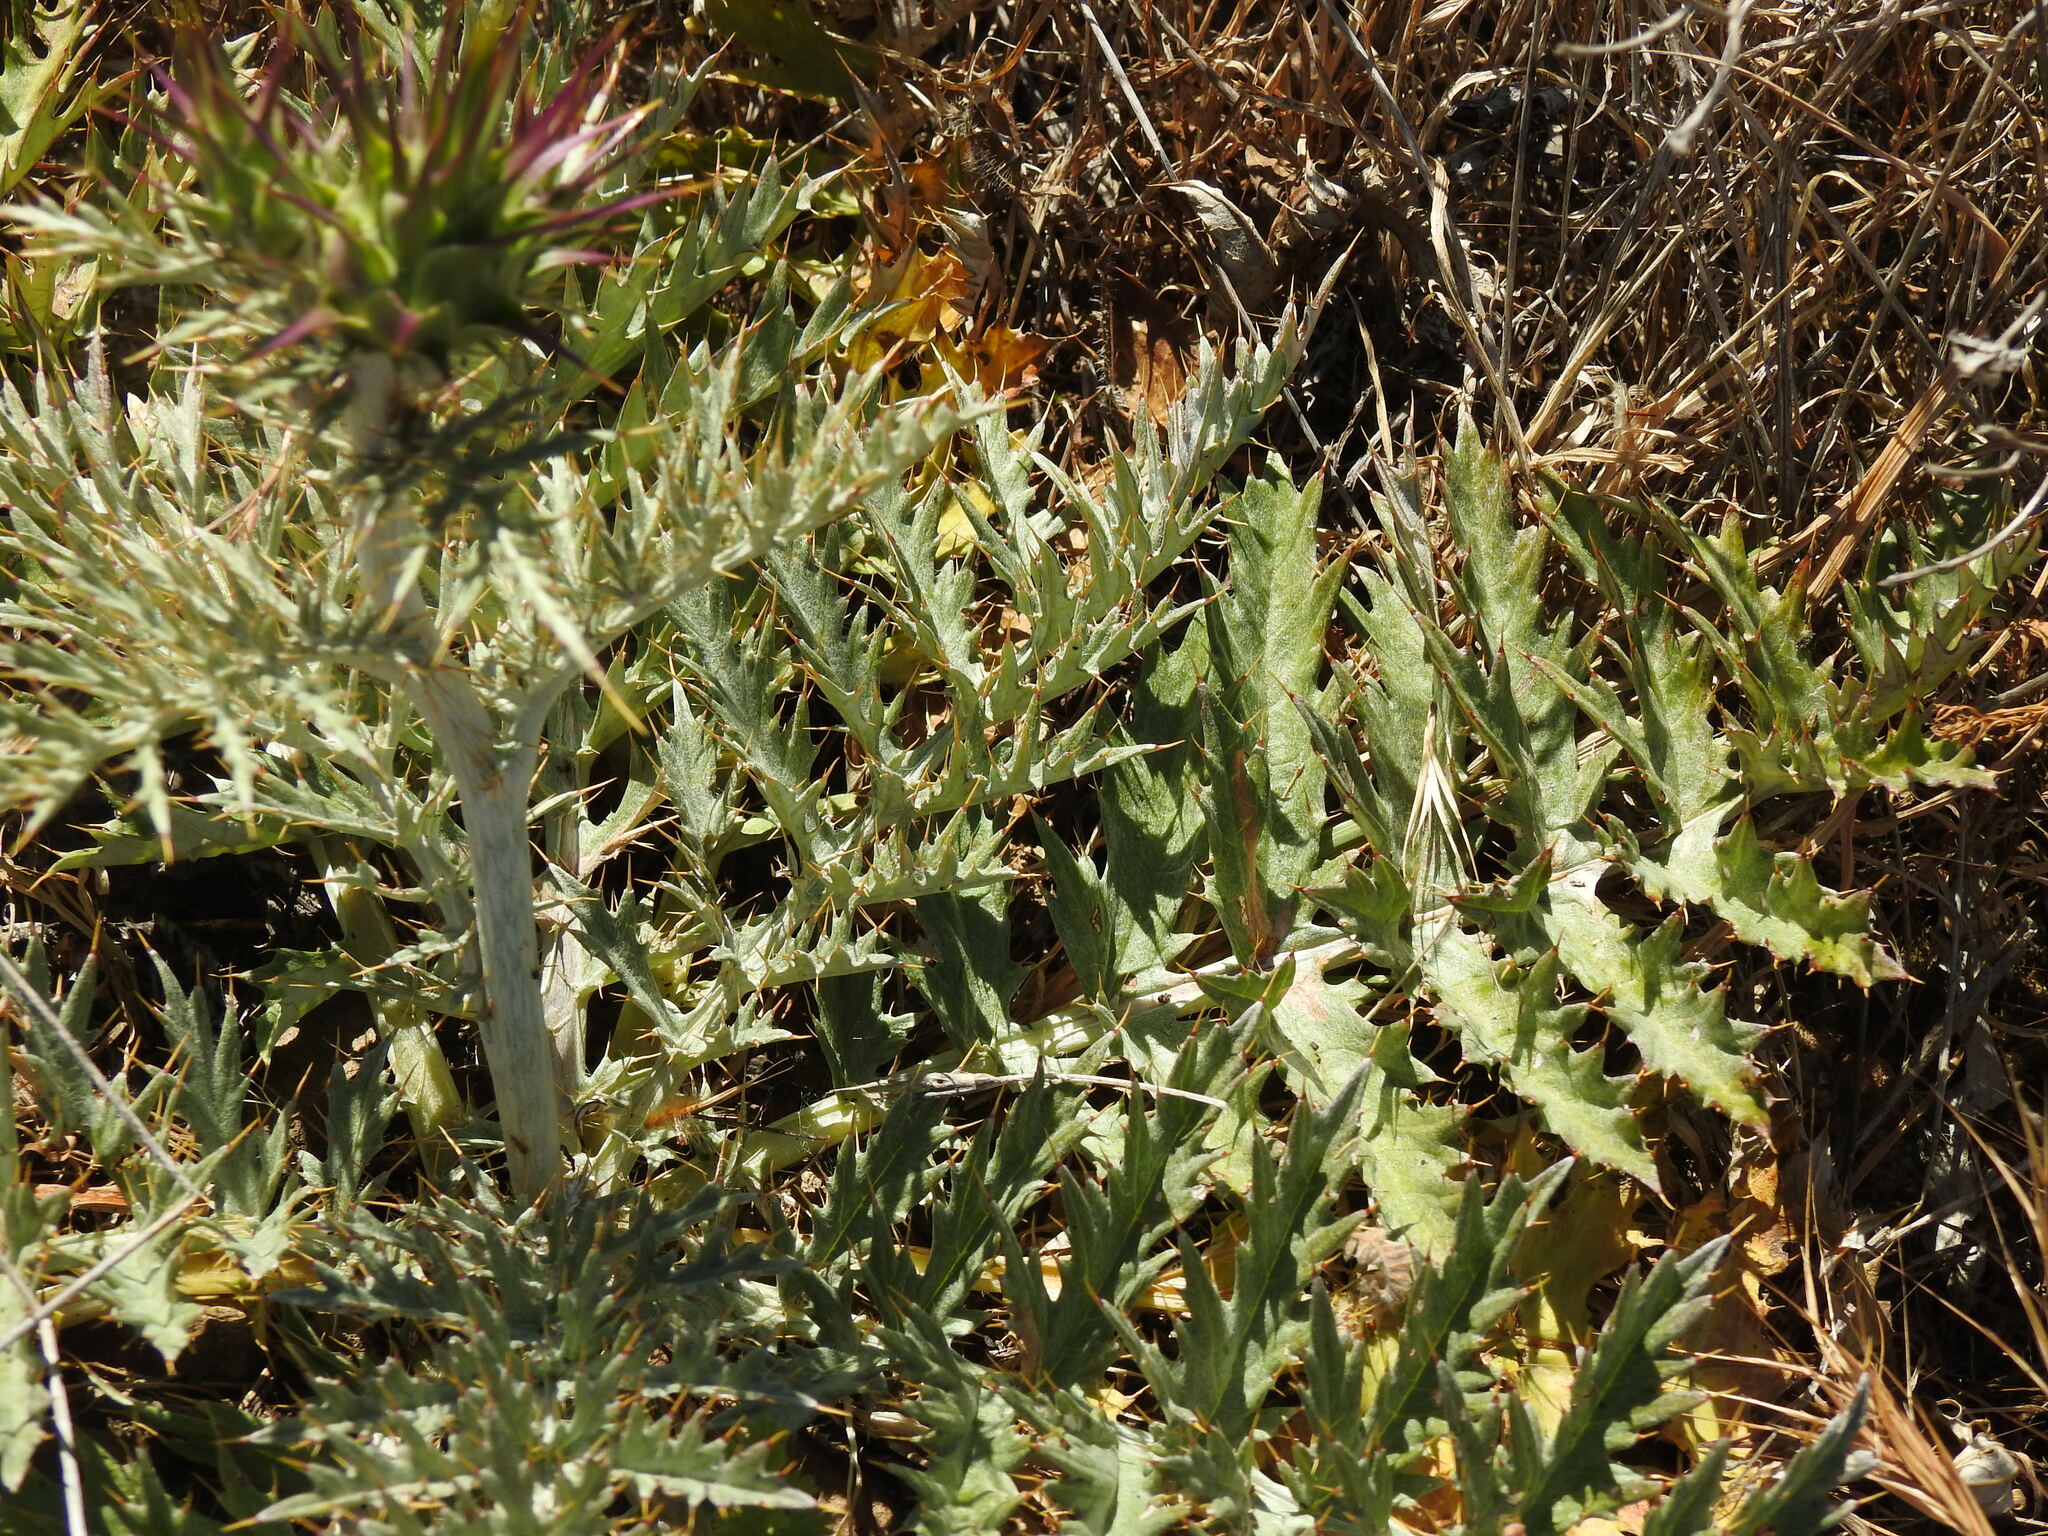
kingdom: Plantae
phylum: Tracheophyta
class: Magnoliopsida
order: Asterales
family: Asteraceae
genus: Cynara
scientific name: Cynara algarbiensis
